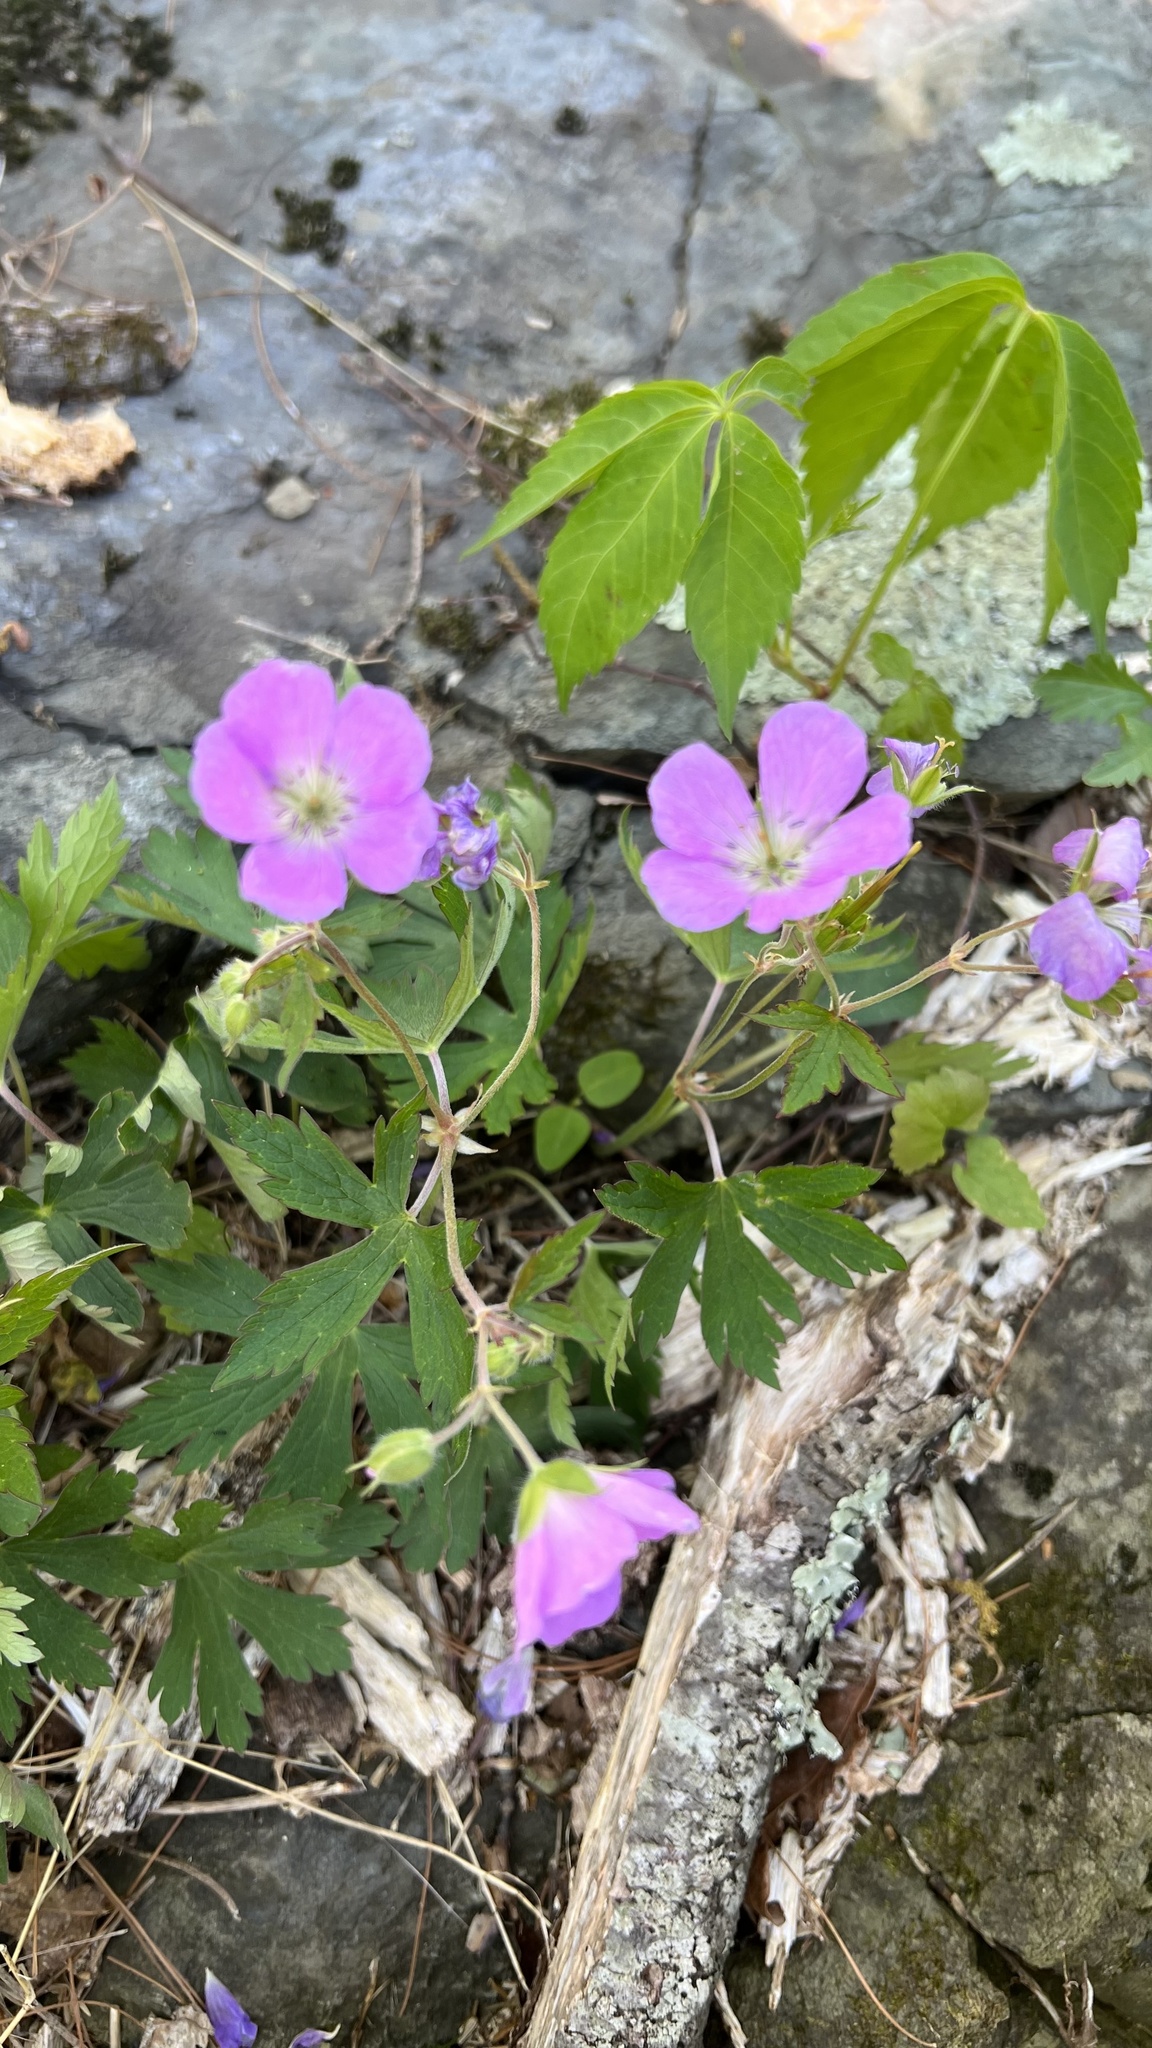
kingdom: Plantae
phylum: Tracheophyta
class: Magnoliopsida
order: Geraniales
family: Geraniaceae
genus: Geranium
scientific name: Geranium maculatum
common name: Spotted geranium
